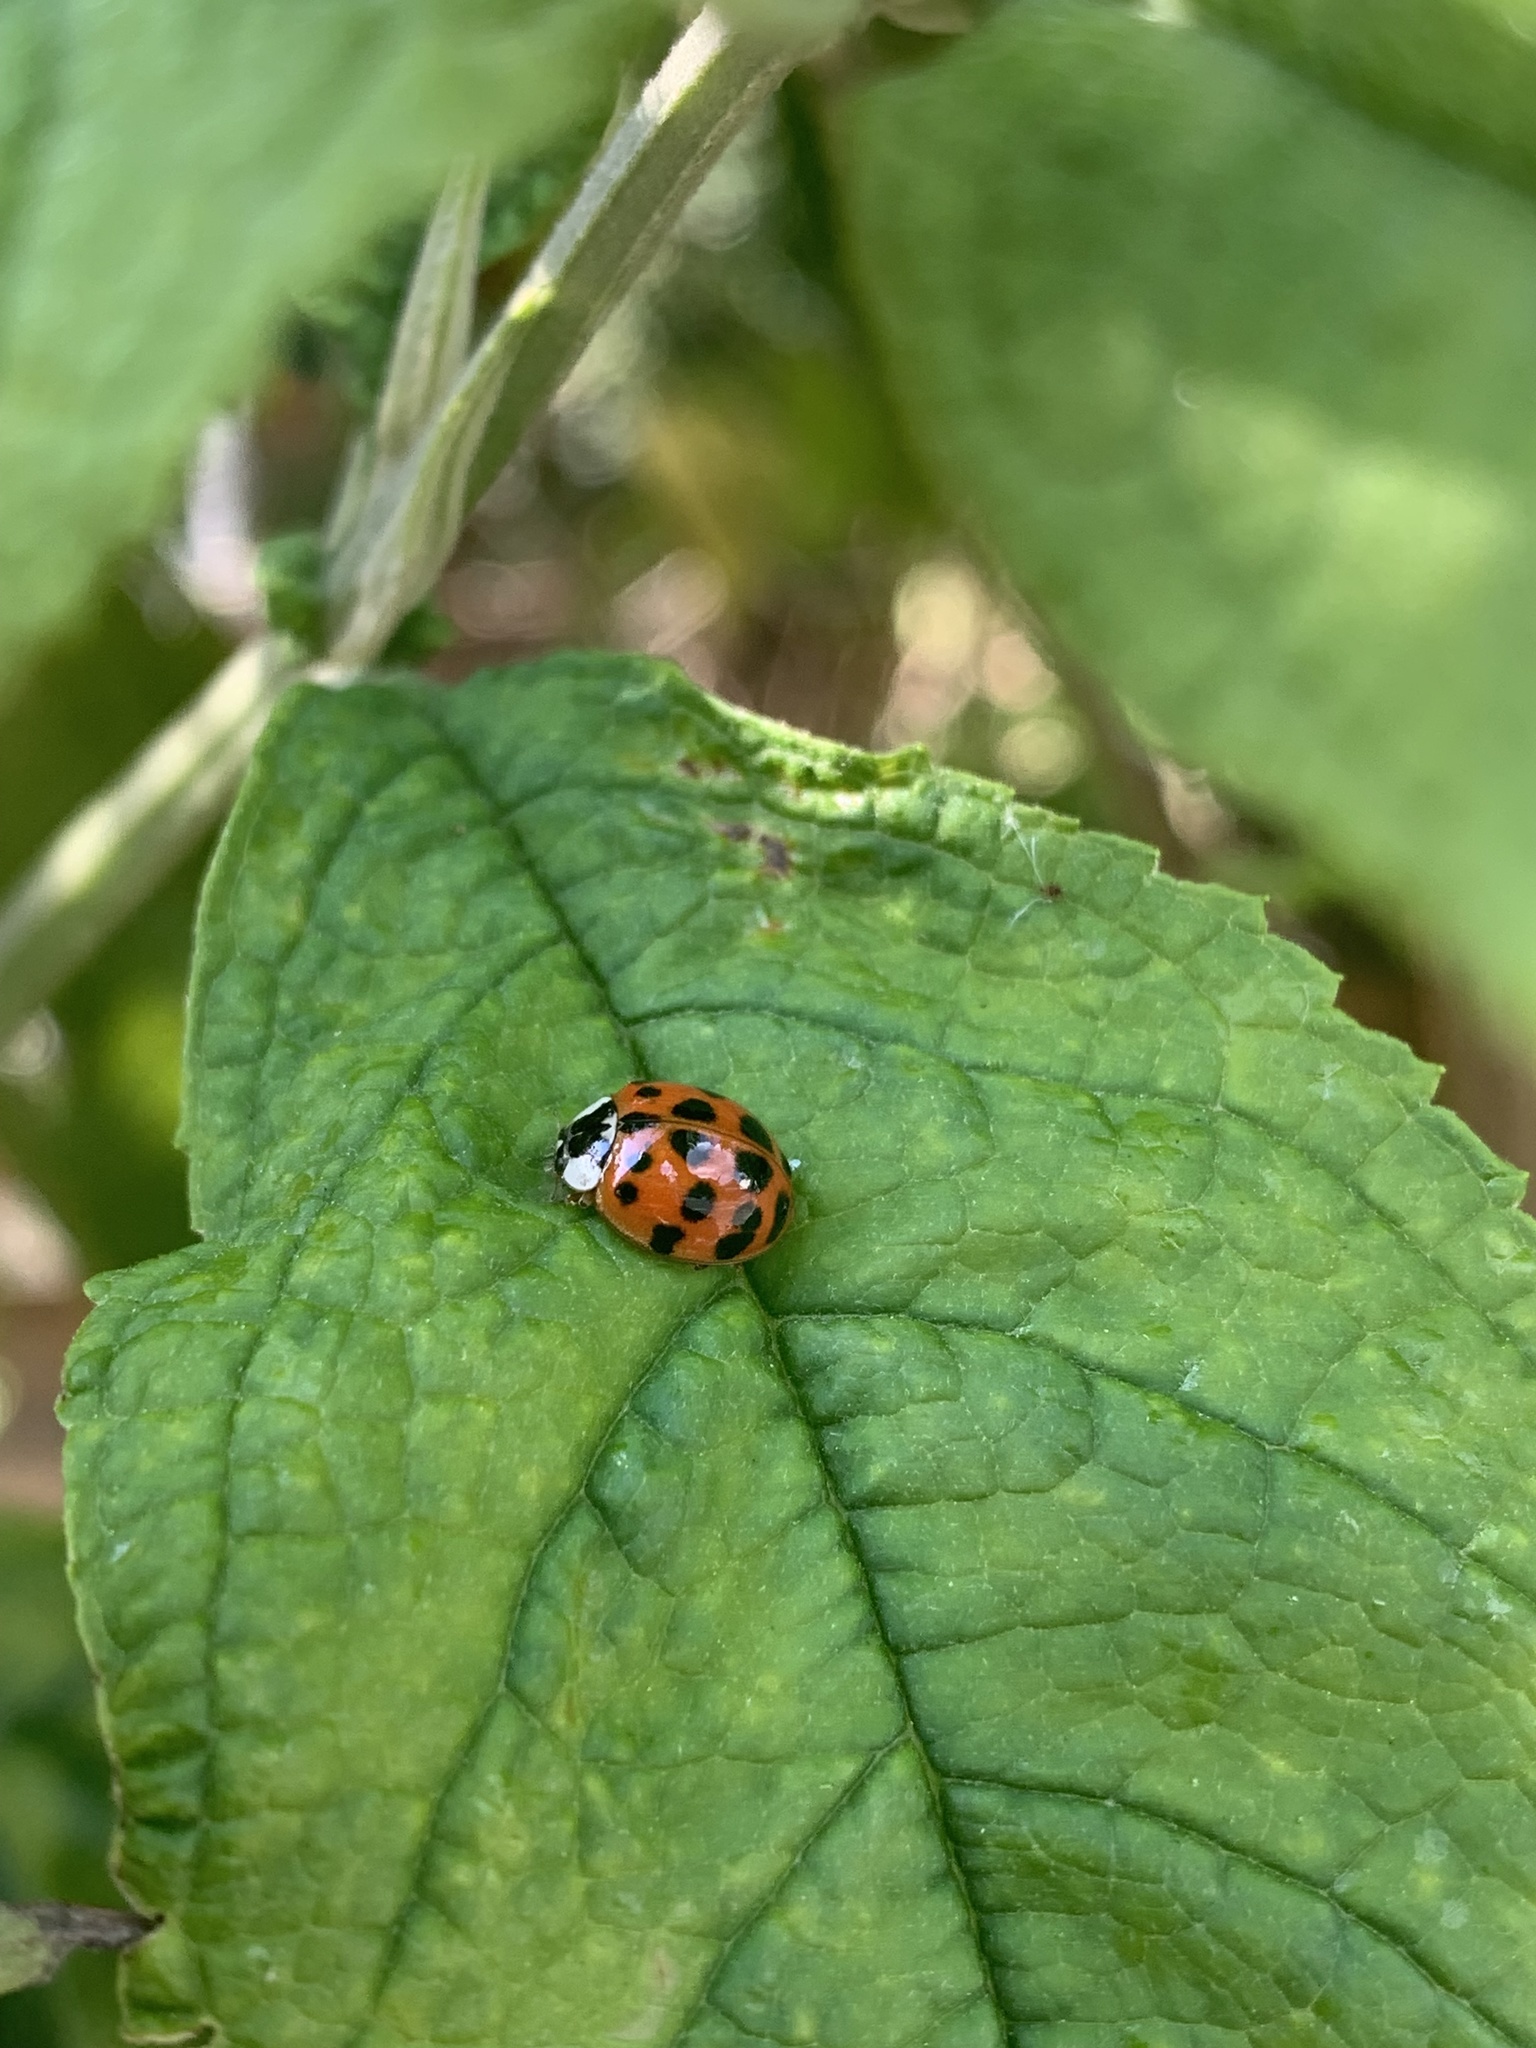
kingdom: Animalia
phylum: Arthropoda
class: Insecta
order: Coleoptera
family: Coccinellidae
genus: Harmonia
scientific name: Harmonia axyridis
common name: Harlequin ladybird
